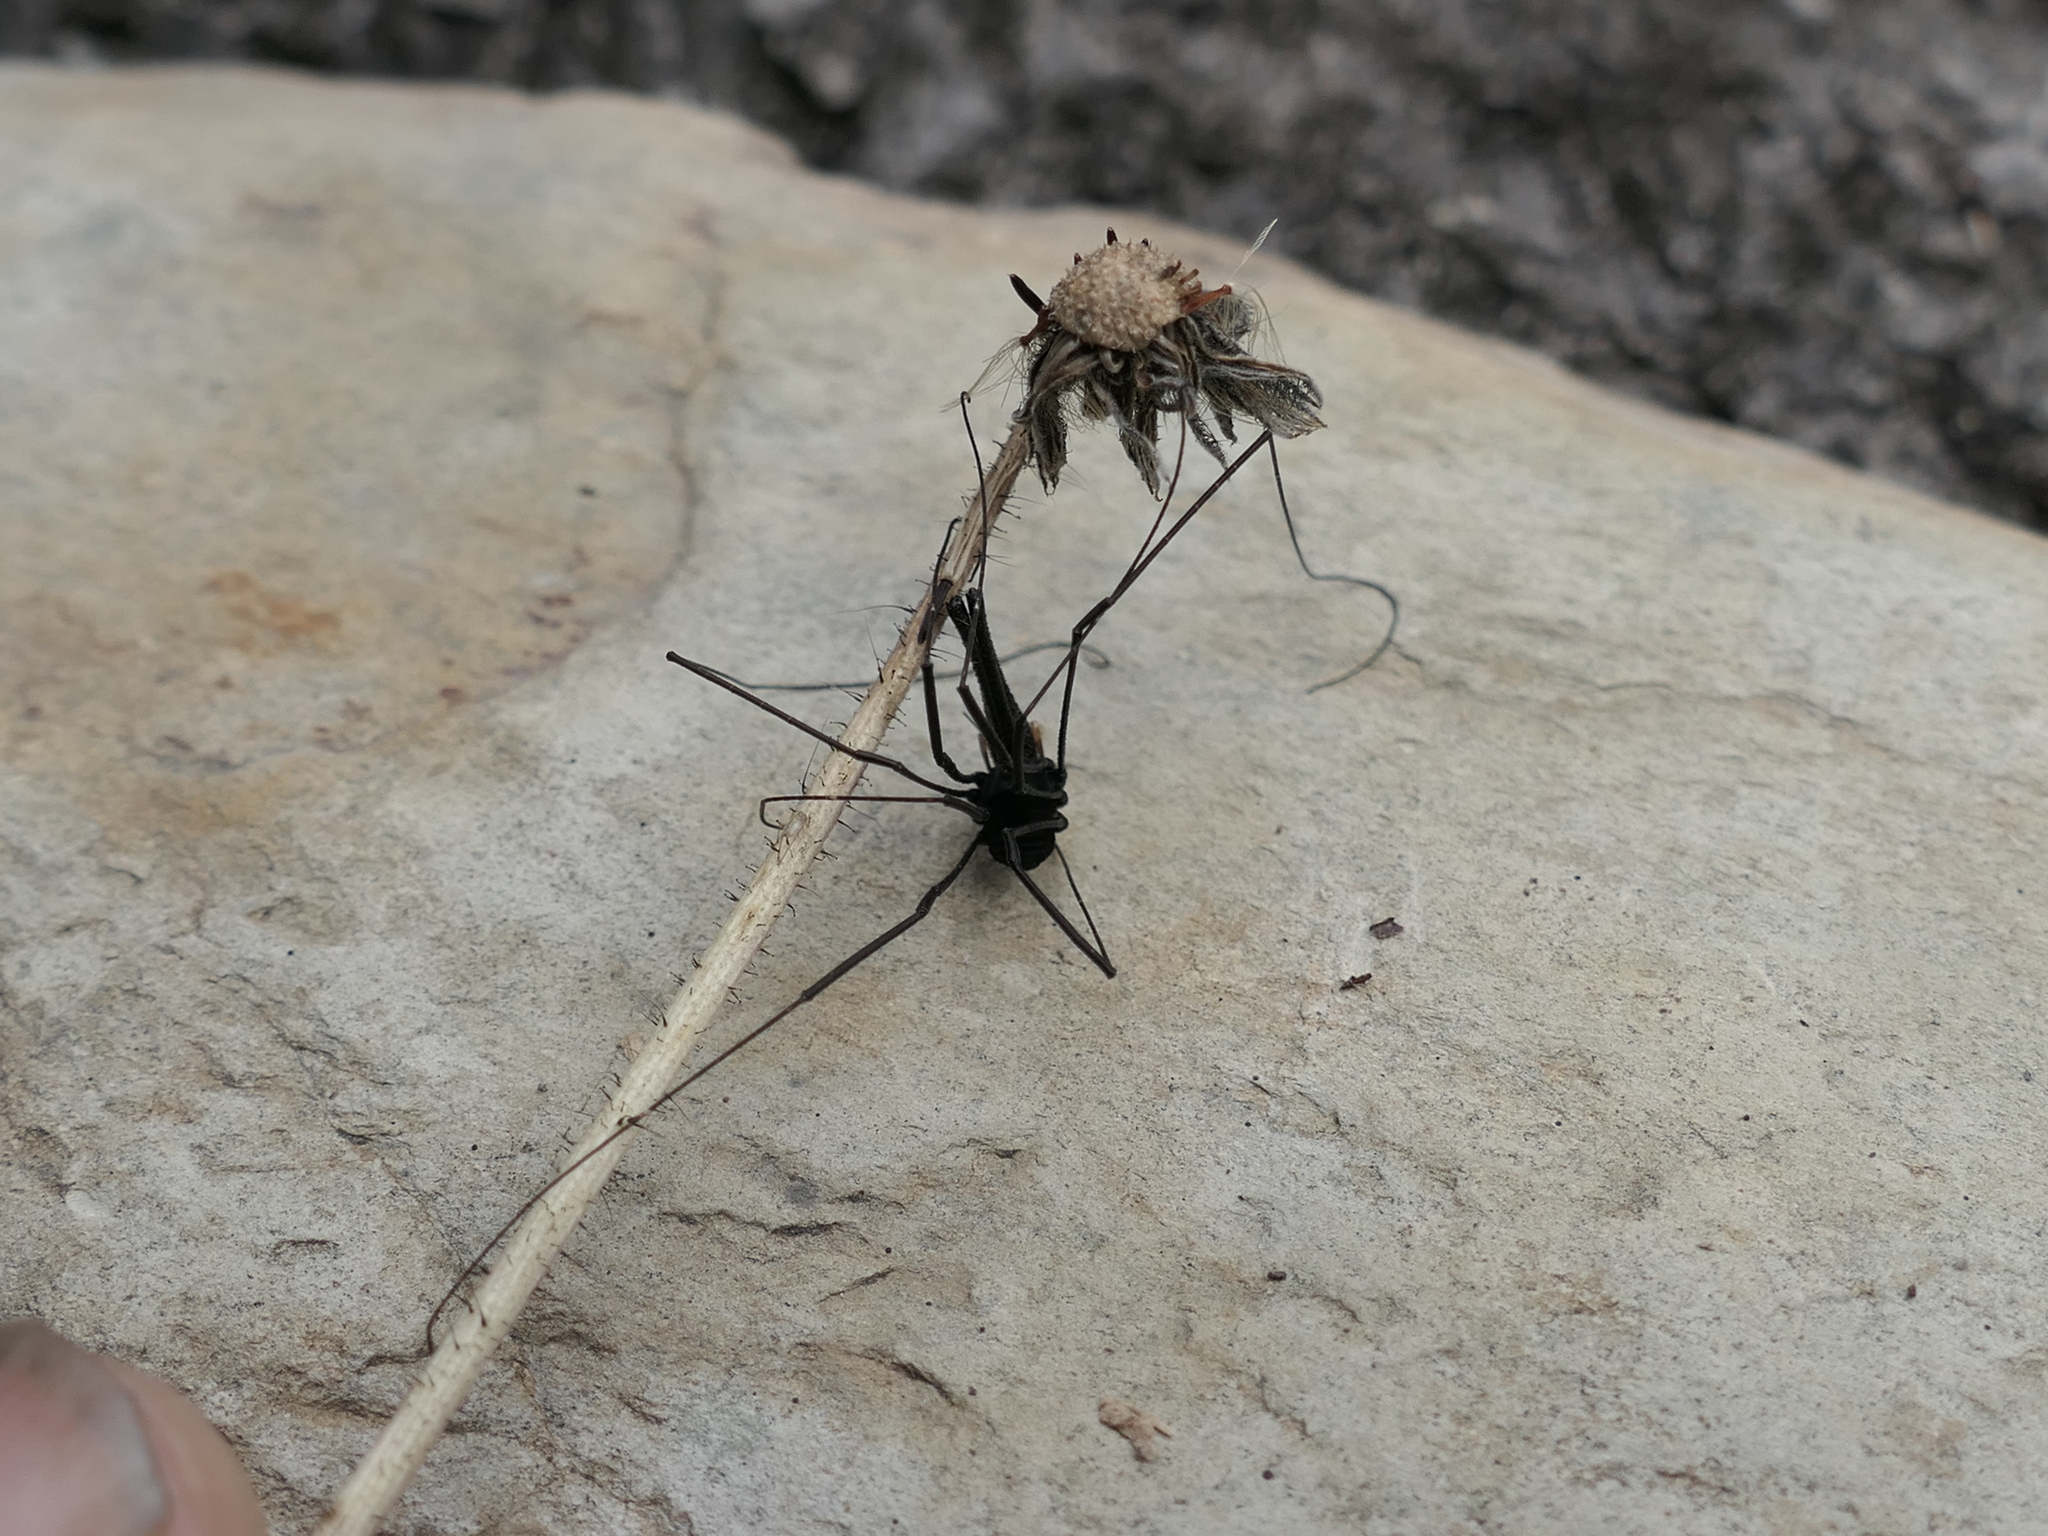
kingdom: Animalia
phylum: Arthropoda
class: Arachnida
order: Opiliones
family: Neopilionidae
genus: Pantopsalis
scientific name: Pantopsalis listeri
